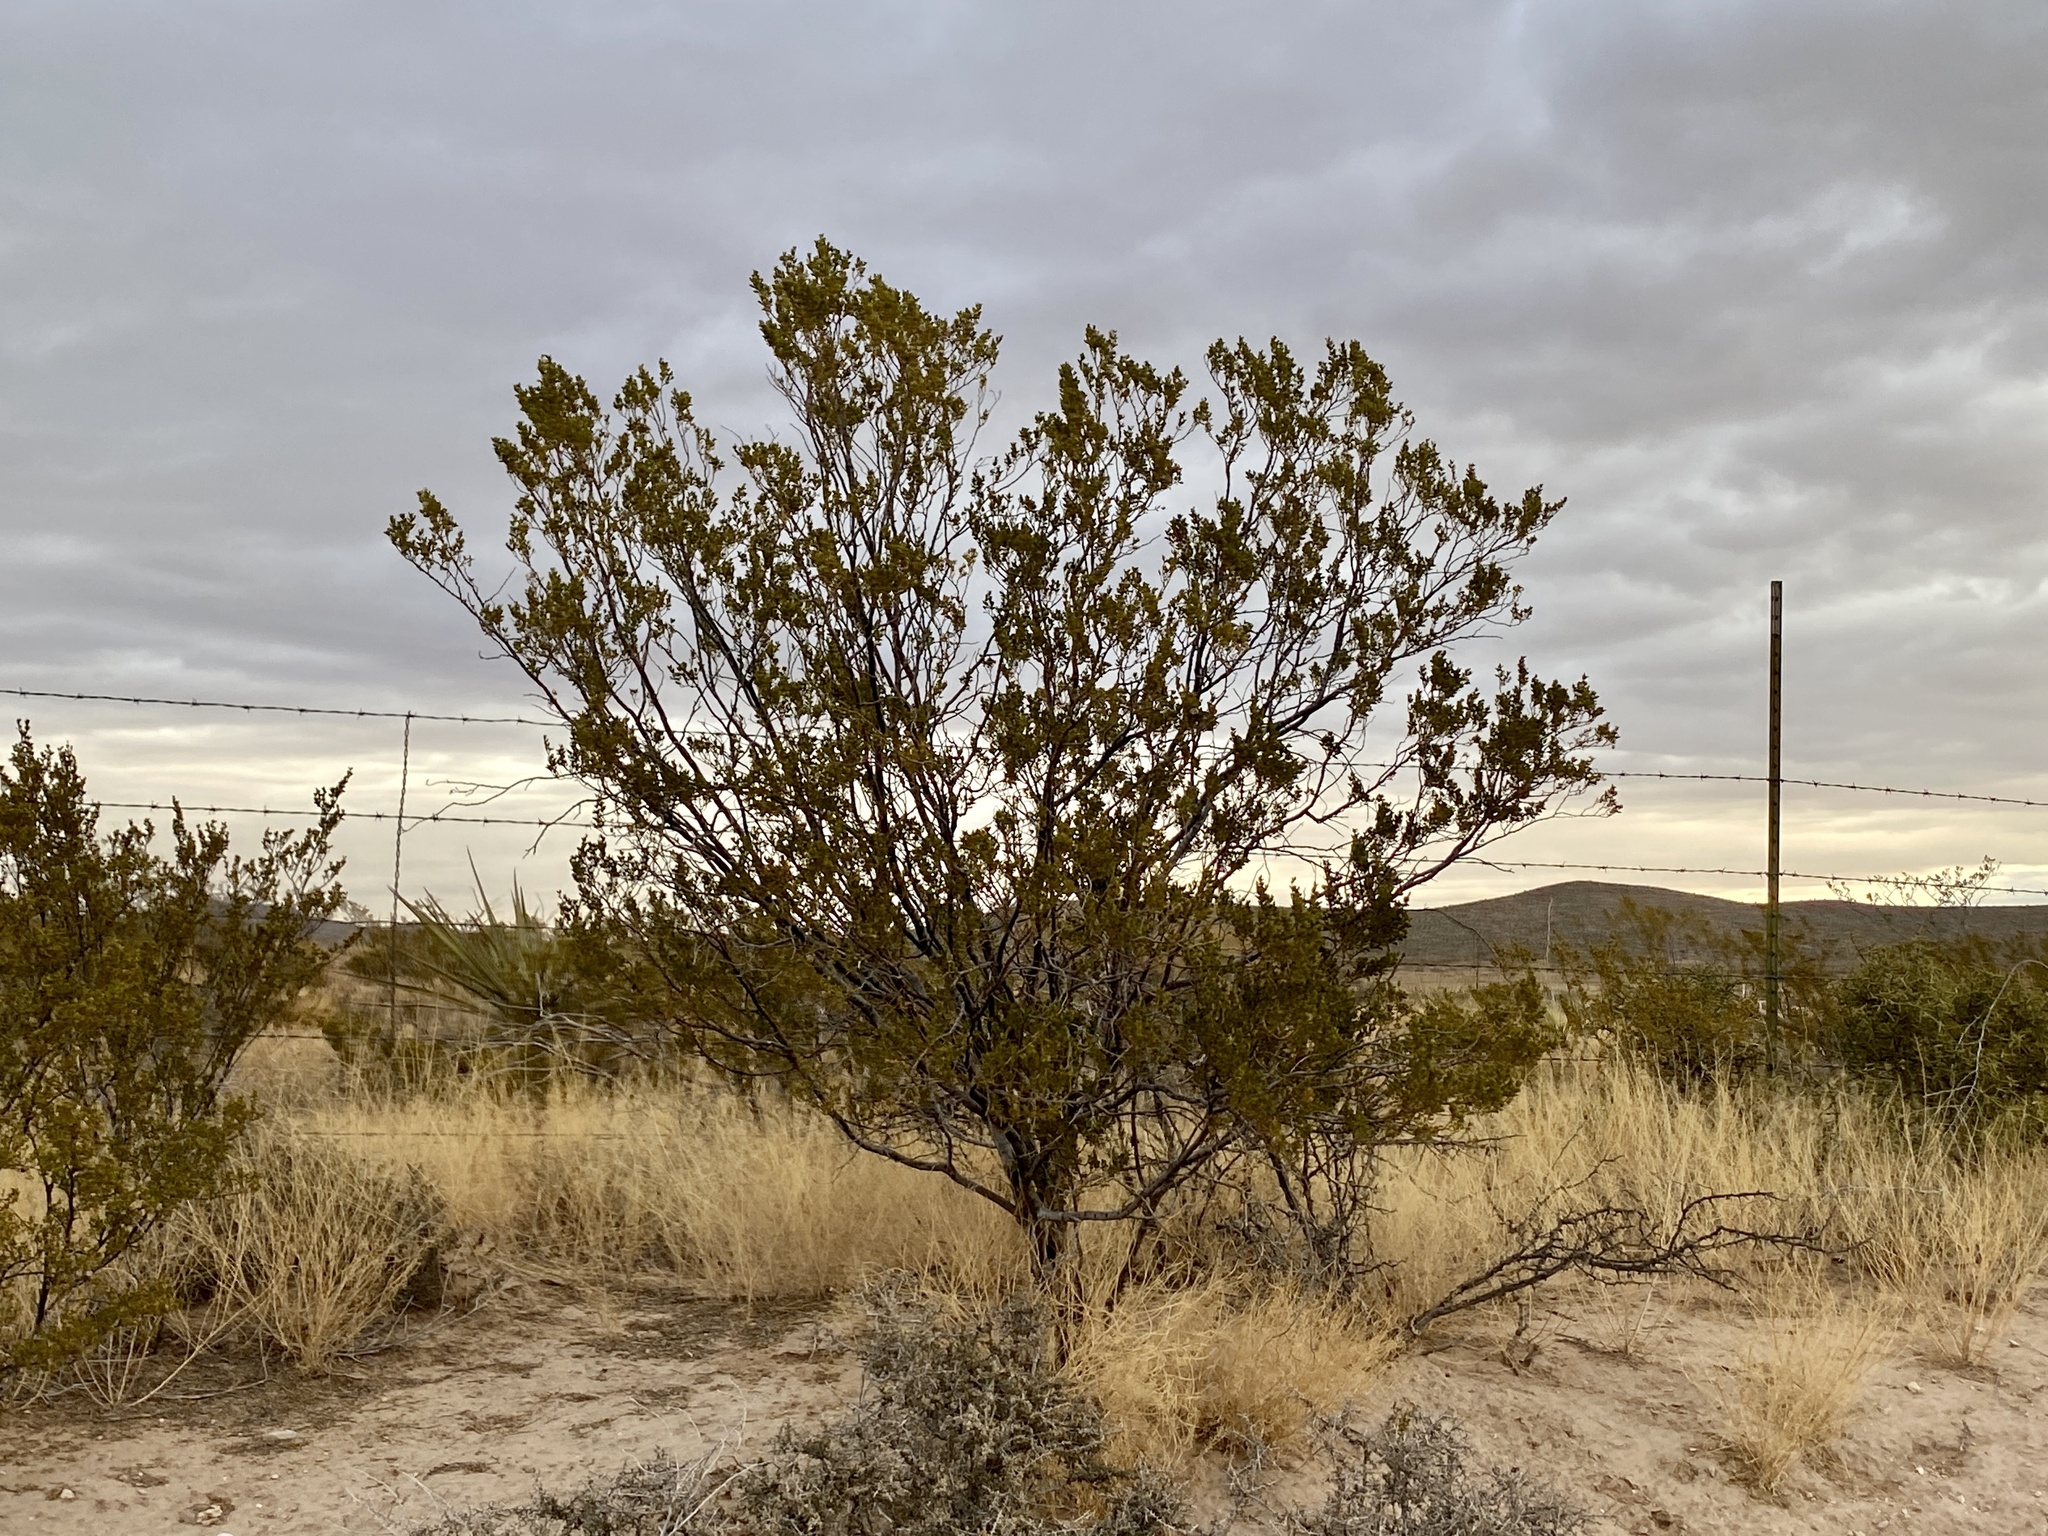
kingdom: Plantae
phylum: Tracheophyta
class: Magnoliopsida
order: Zygophyllales
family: Zygophyllaceae
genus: Larrea
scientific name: Larrea tridentata
